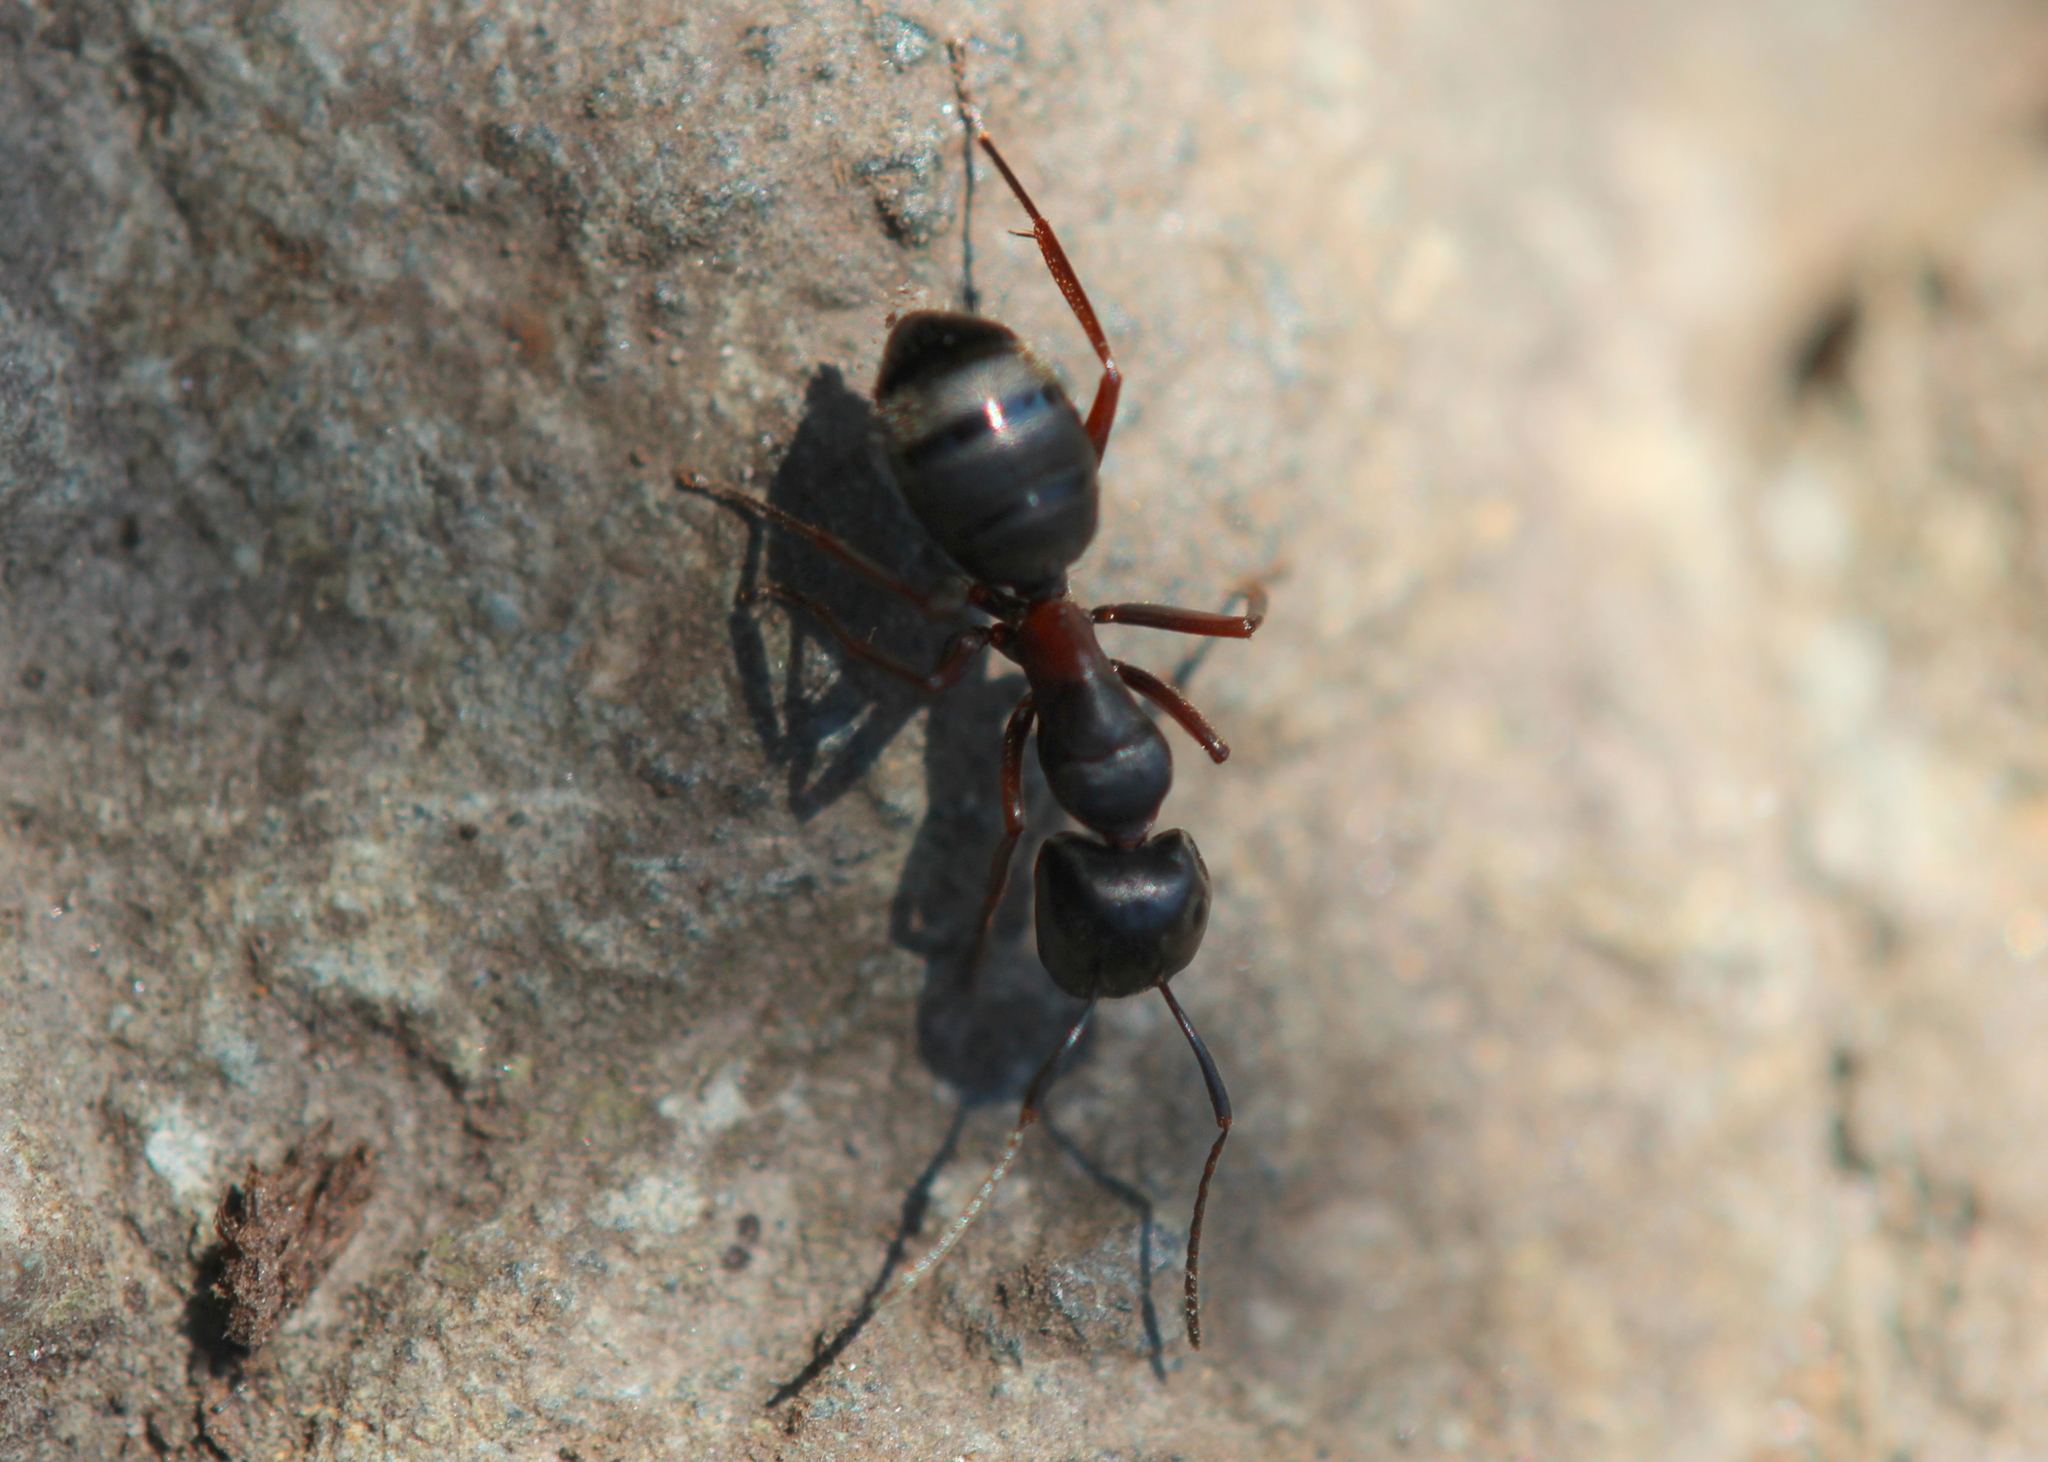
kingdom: Animalia
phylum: Arthropoda
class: Insecta
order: Hymenoptera
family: Formicidae
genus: Camponotus
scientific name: Camponotus herculeanus
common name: Hercules ant
